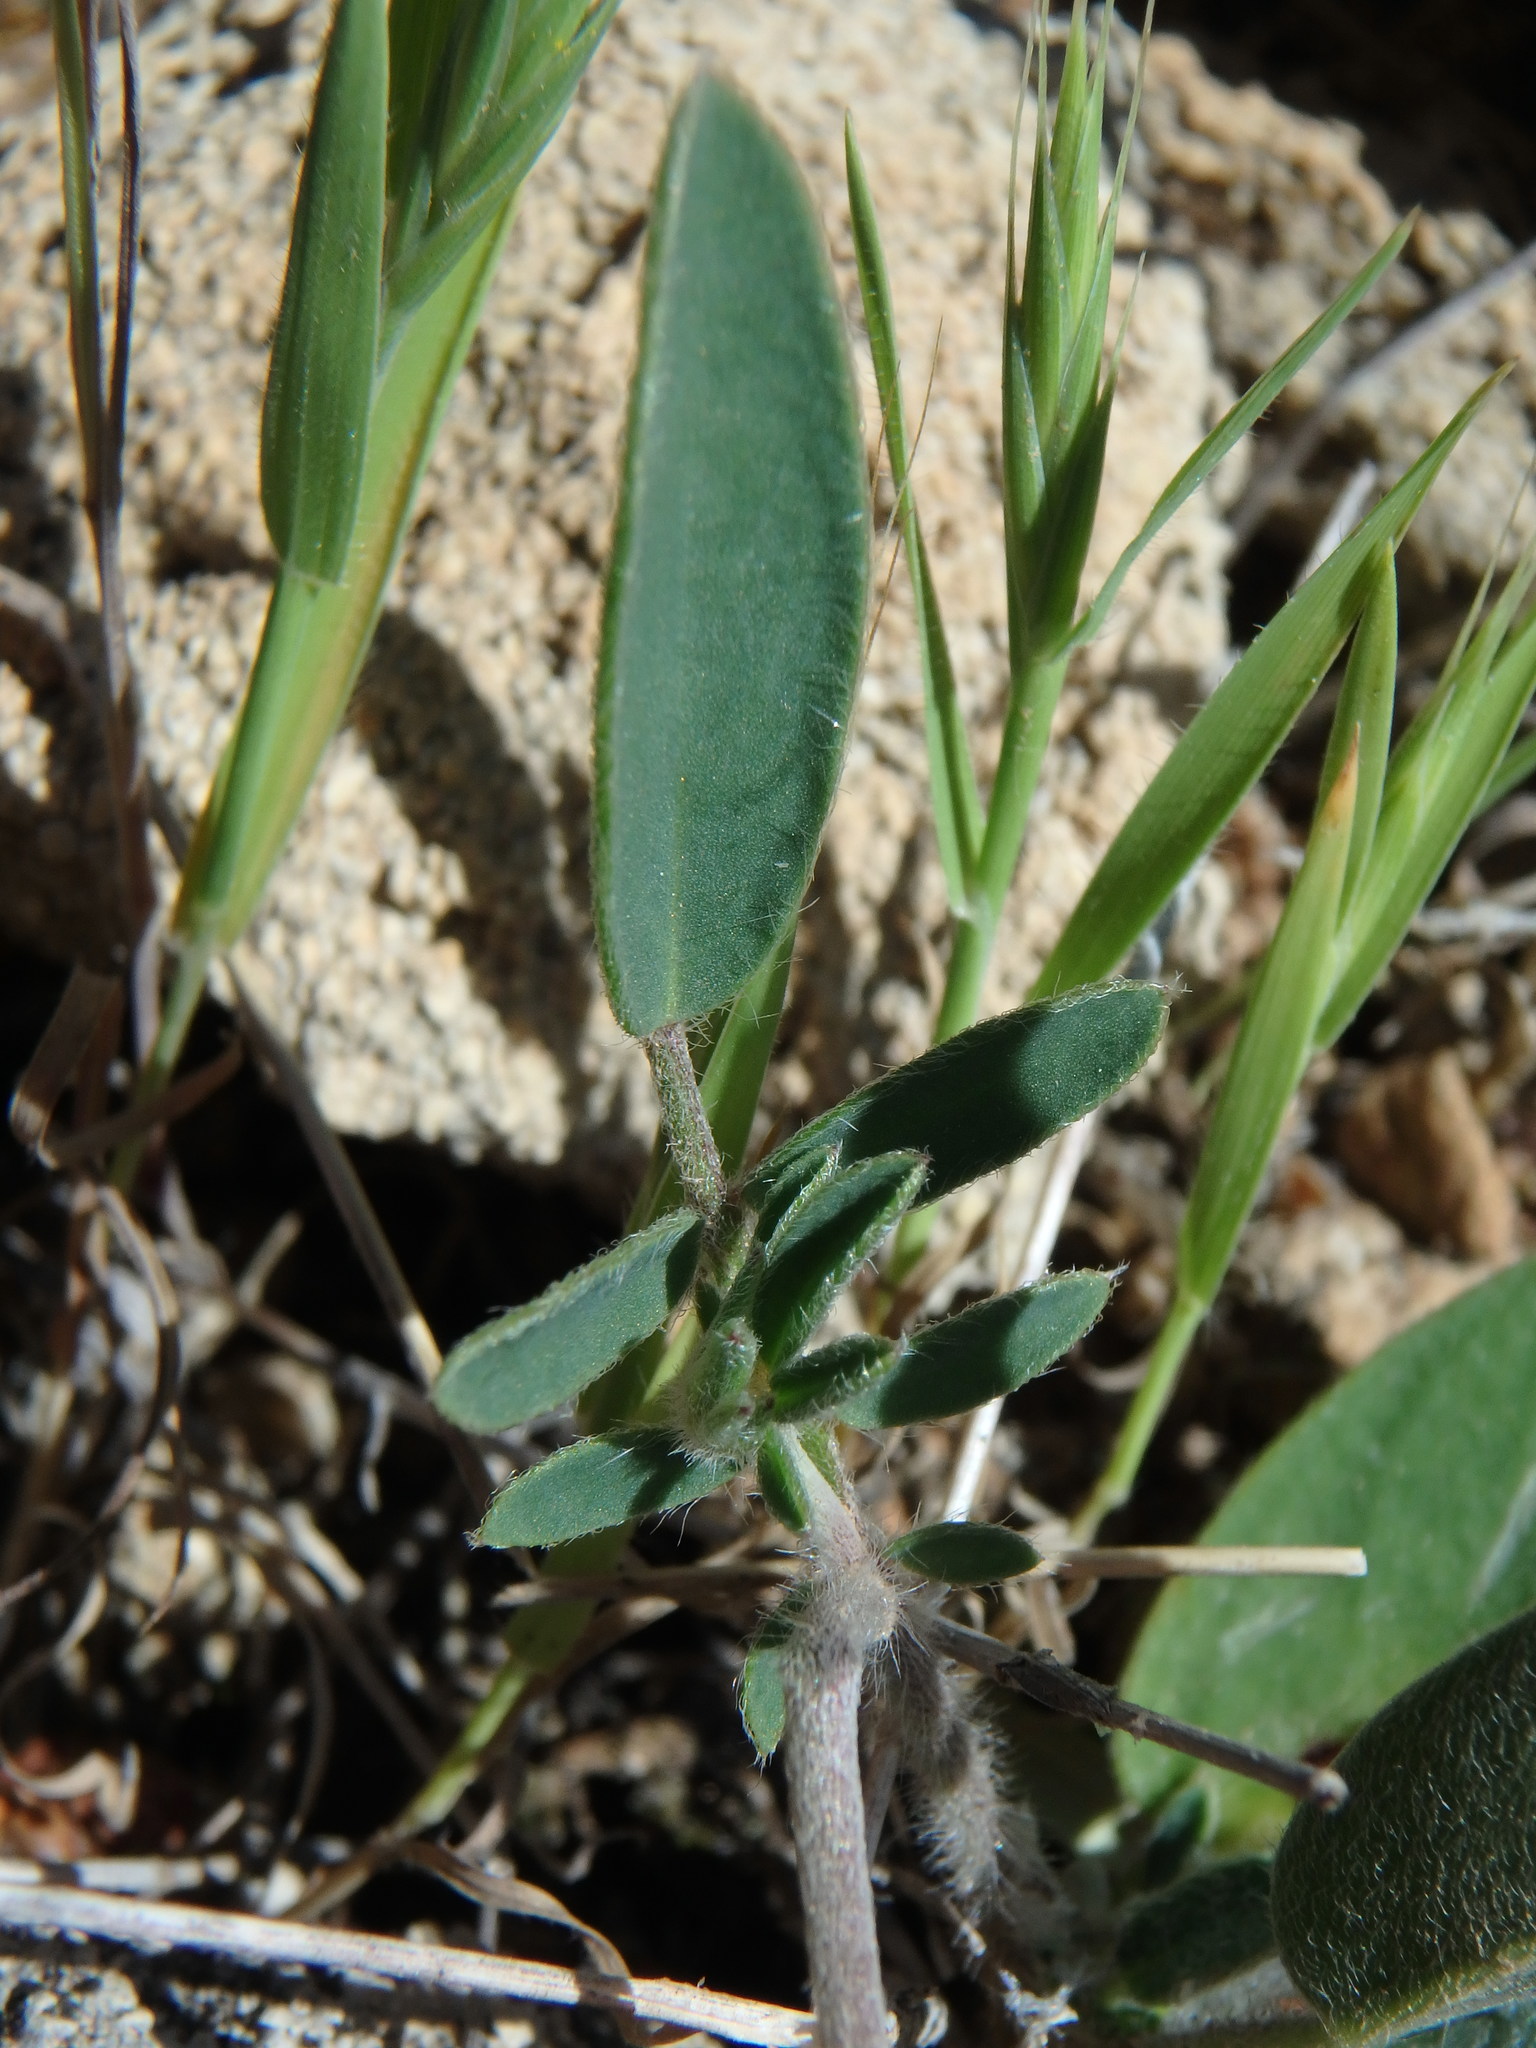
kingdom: Plantae
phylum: Tracheophyta
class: Magnoliopsida
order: Fabales
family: Fabaceae
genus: Anthyllis
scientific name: Anthyllis vulneraria
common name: Kidney vetch
